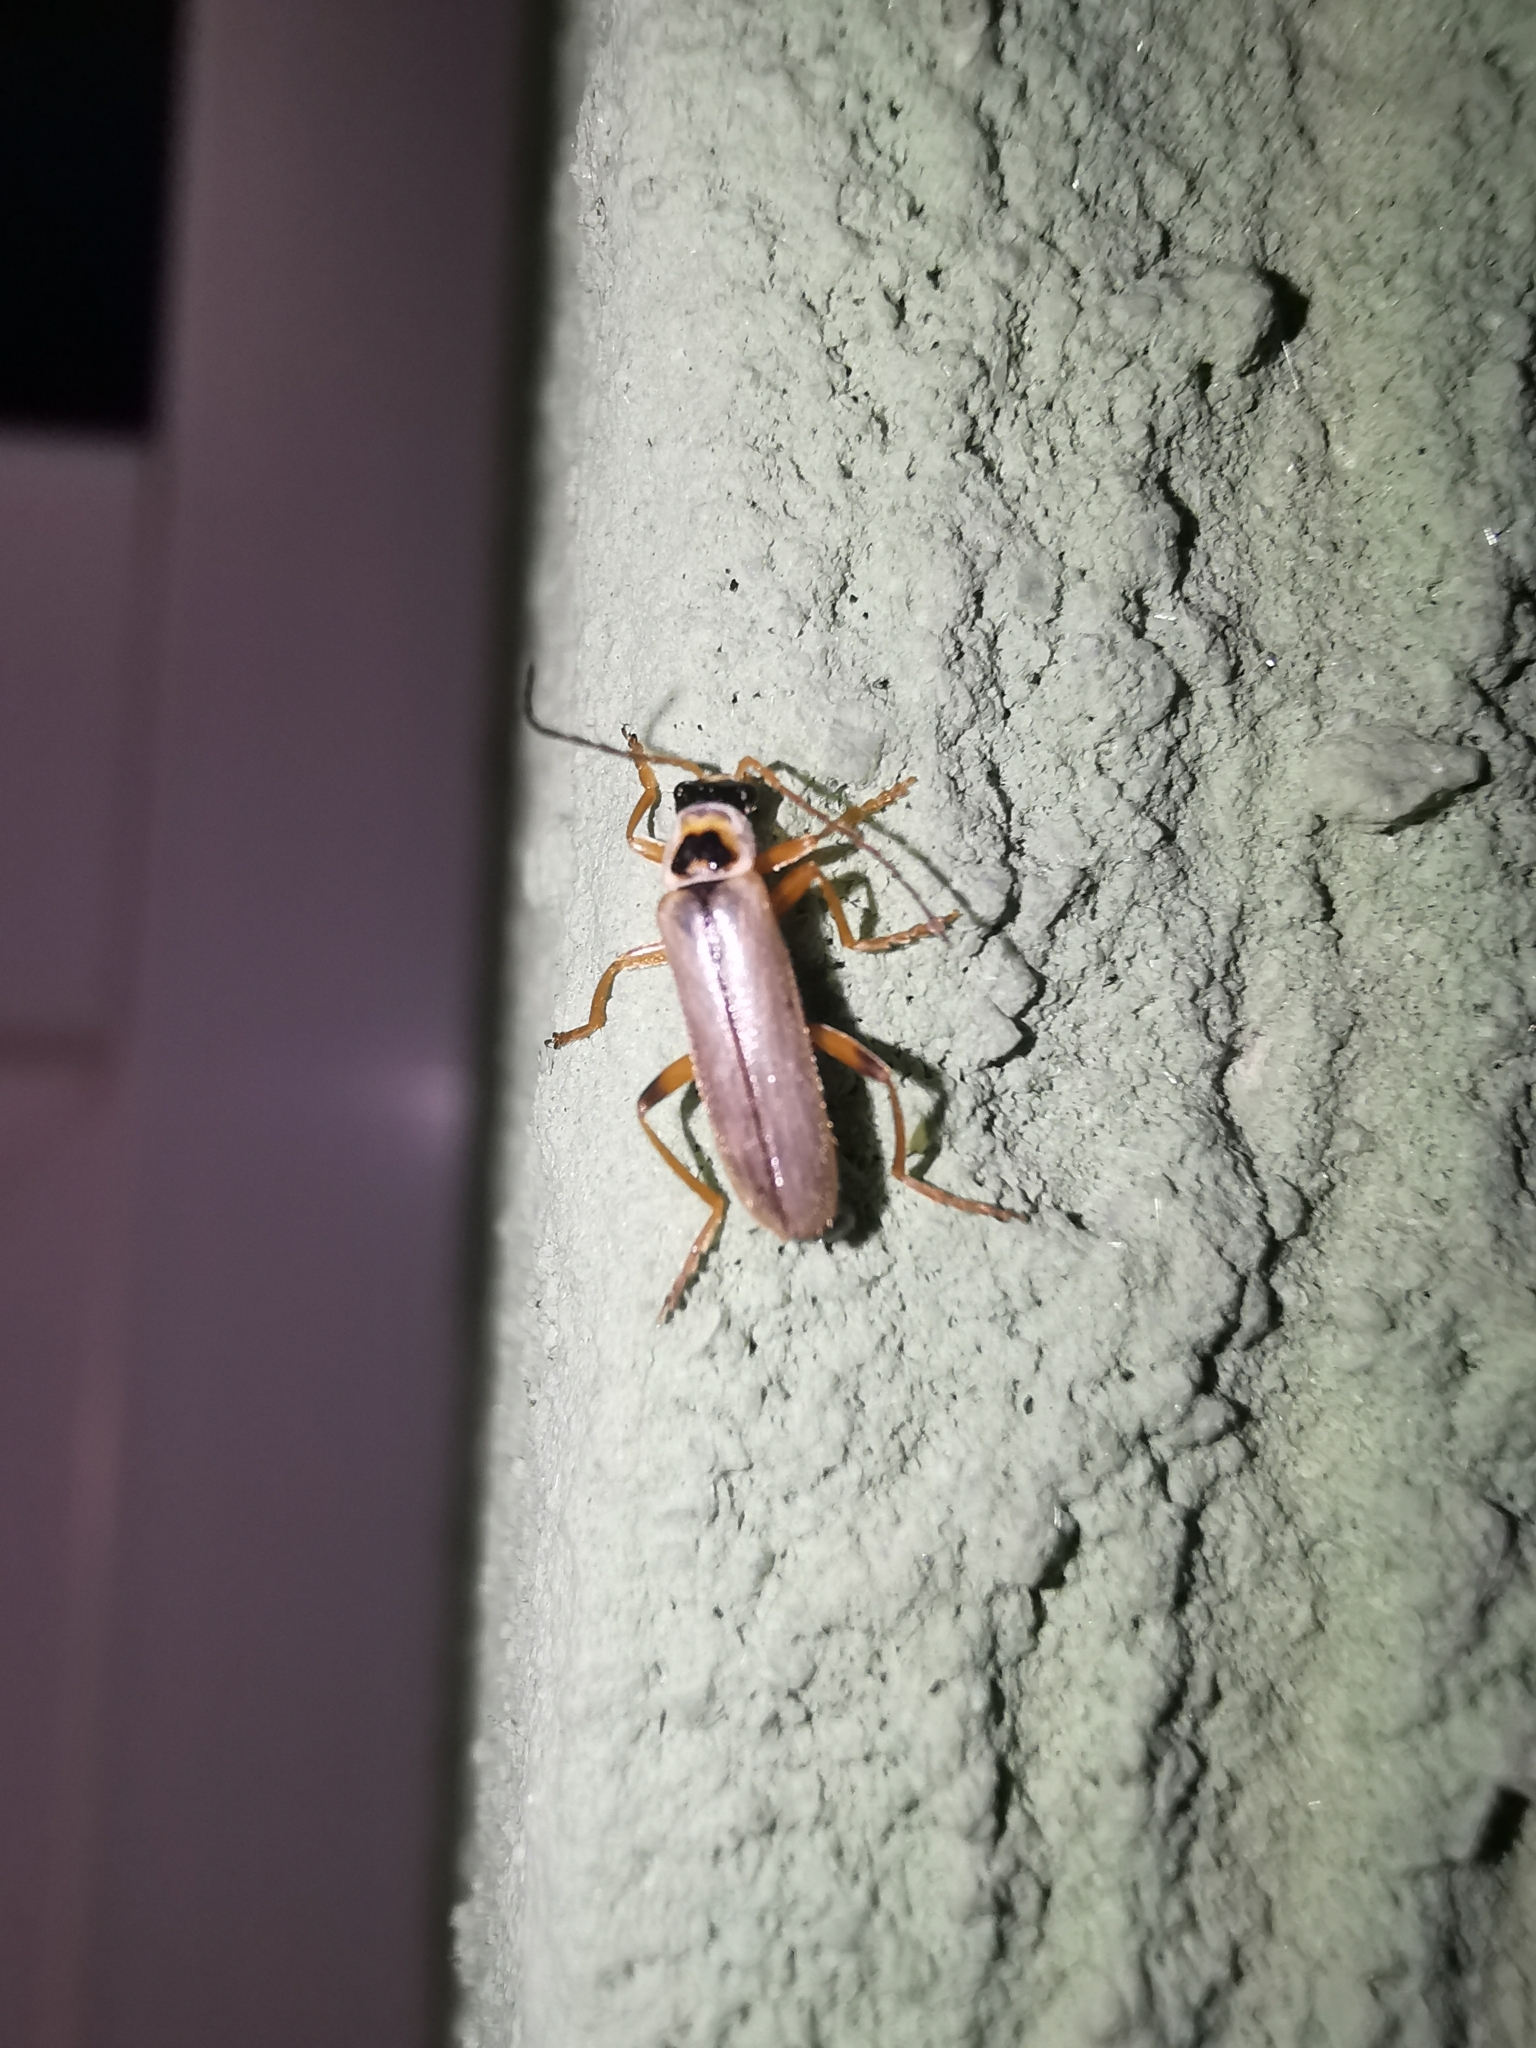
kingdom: Animalia
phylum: Arthropoda
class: Insecta
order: Coleoptera
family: Cantharidae
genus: Metacantharis
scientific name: Metacantharis clypeata
